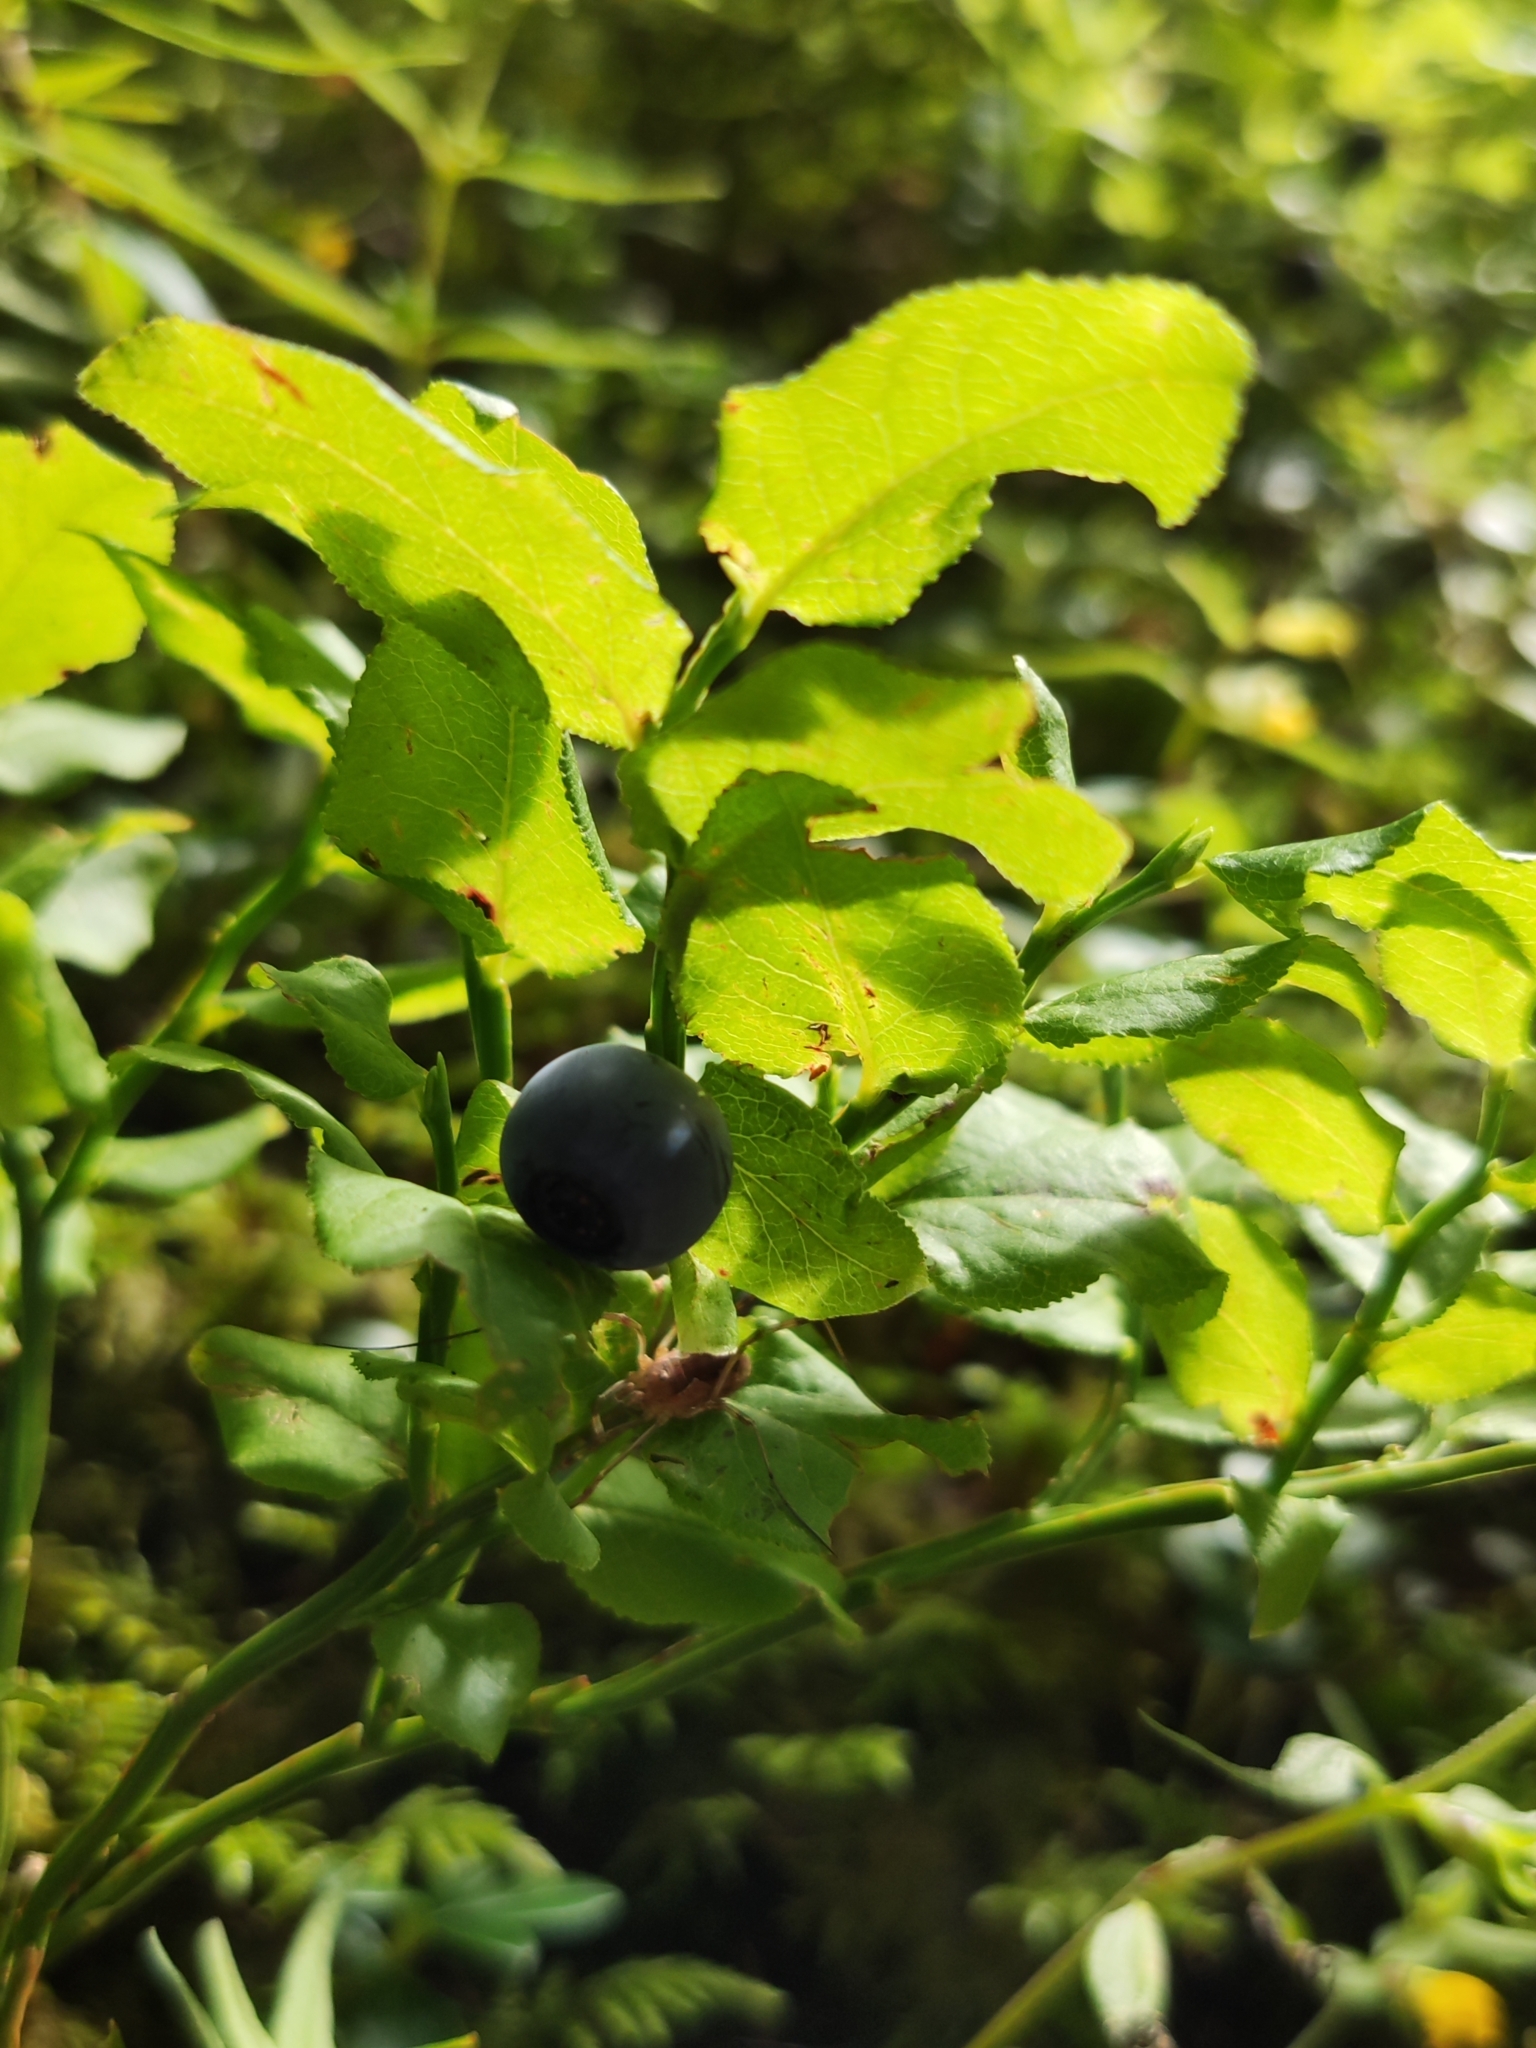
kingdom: Plantae
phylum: Tracheophyta
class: Magnoliopsida
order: Ericales
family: Ericaceae
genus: Vaccinium
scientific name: Vaccinium myrtillus
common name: Bilberry
